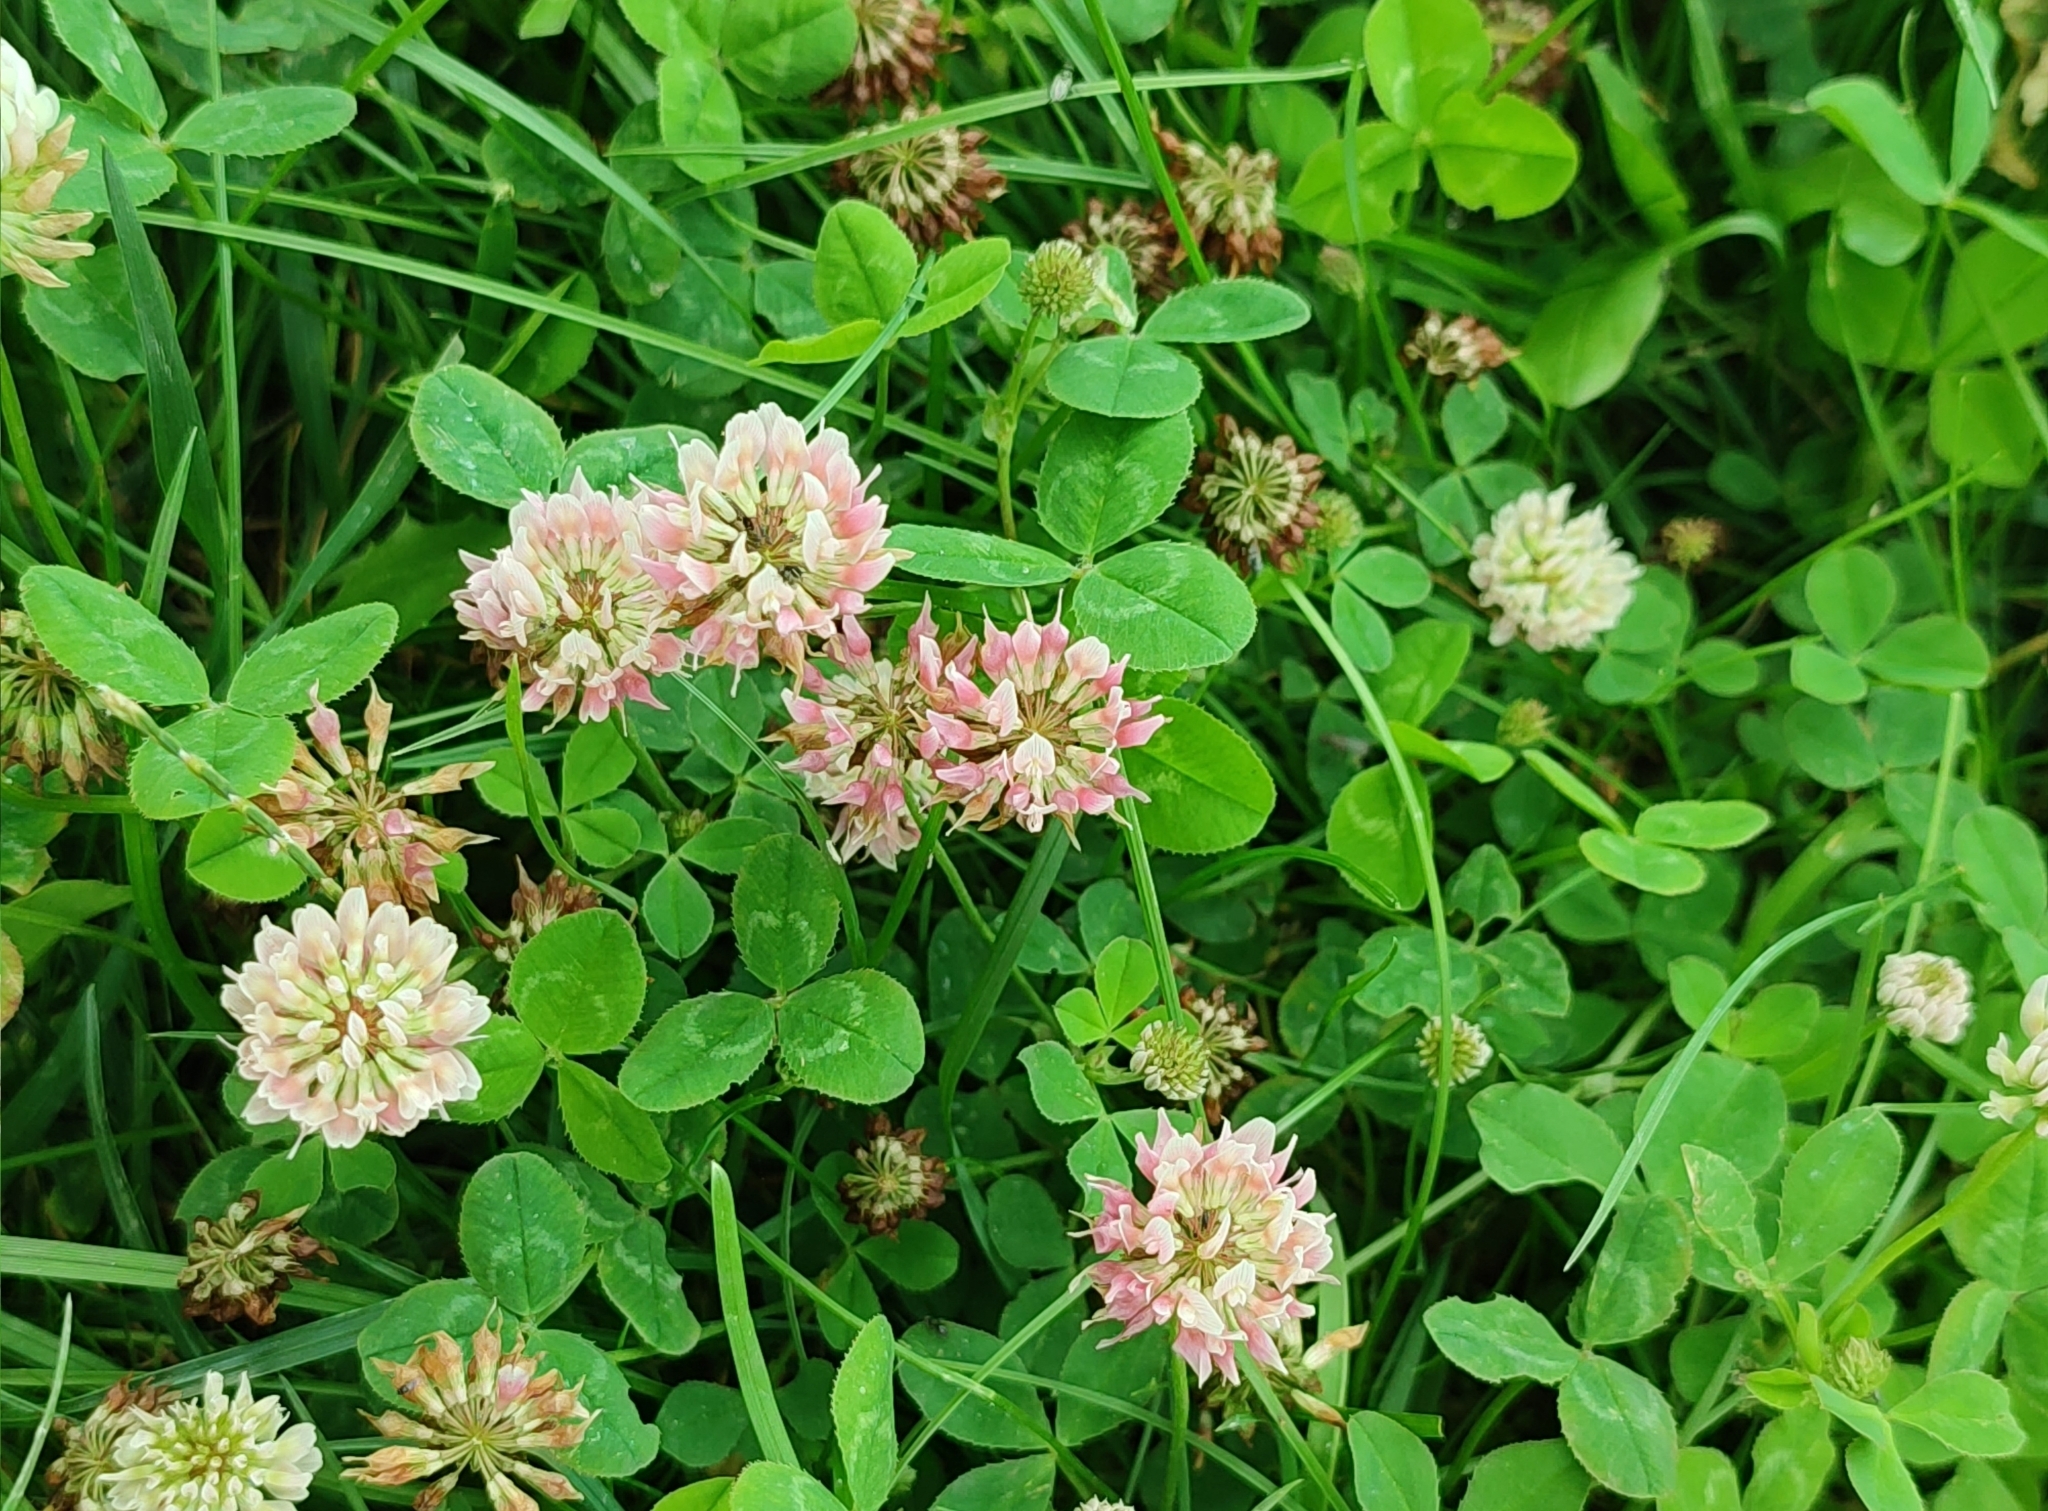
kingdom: Plantae
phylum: Tracheophyta
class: Magnoliopsida
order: Fabales
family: Fabaceae
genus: Trifolium
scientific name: Trifolium repens
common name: White clover
